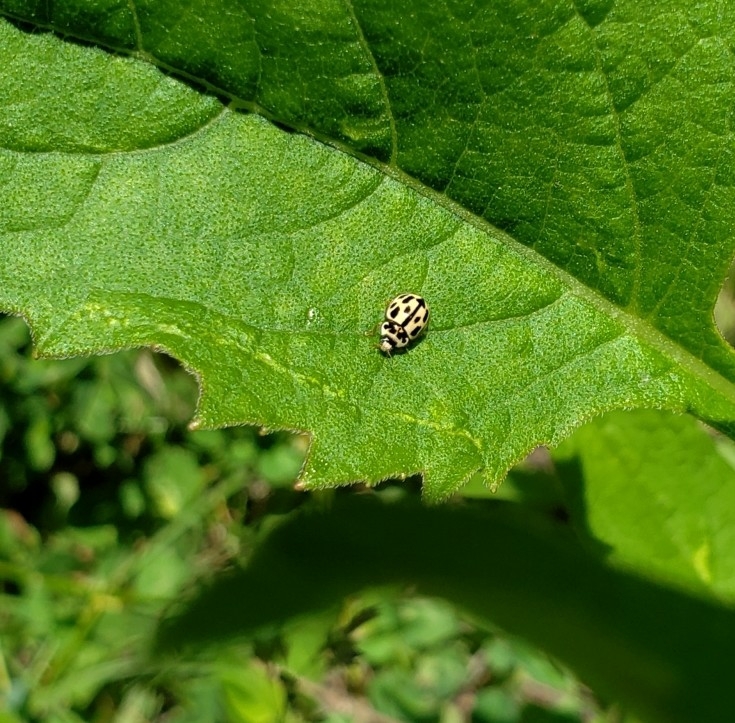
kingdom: Animalia
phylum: Arthropoda
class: Insecta
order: Coleoptera
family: Coccinellidae
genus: Propylaea
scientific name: Propylaea quatuordecimpunctata
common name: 14-spotted ladybird beetle
